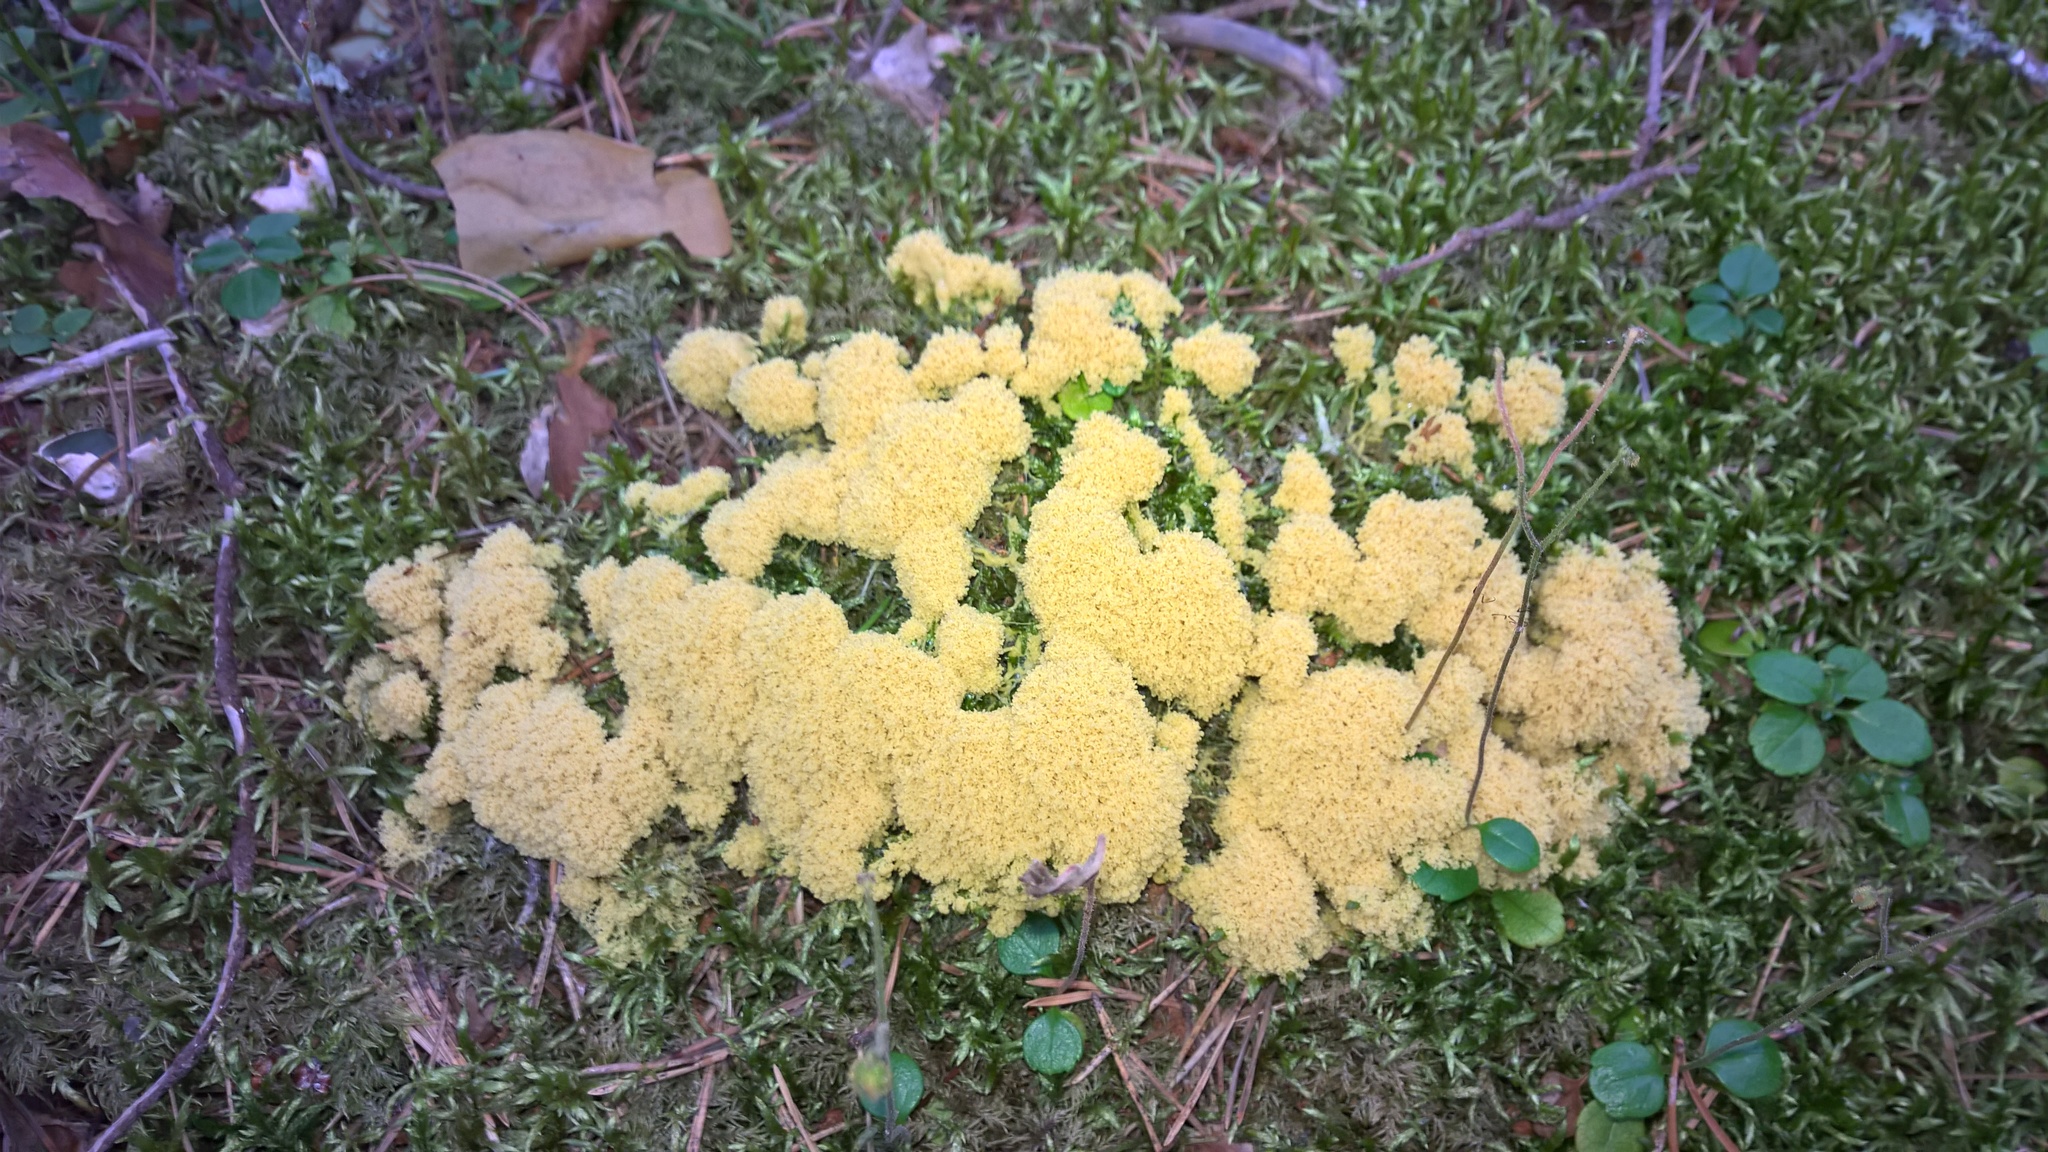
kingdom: Protozoa
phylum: Mycetozoa
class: Myxomycetes
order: Physarales
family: Physaraceae
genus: Fuligo
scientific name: Fuligo septica
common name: Dog vomit slime mold
